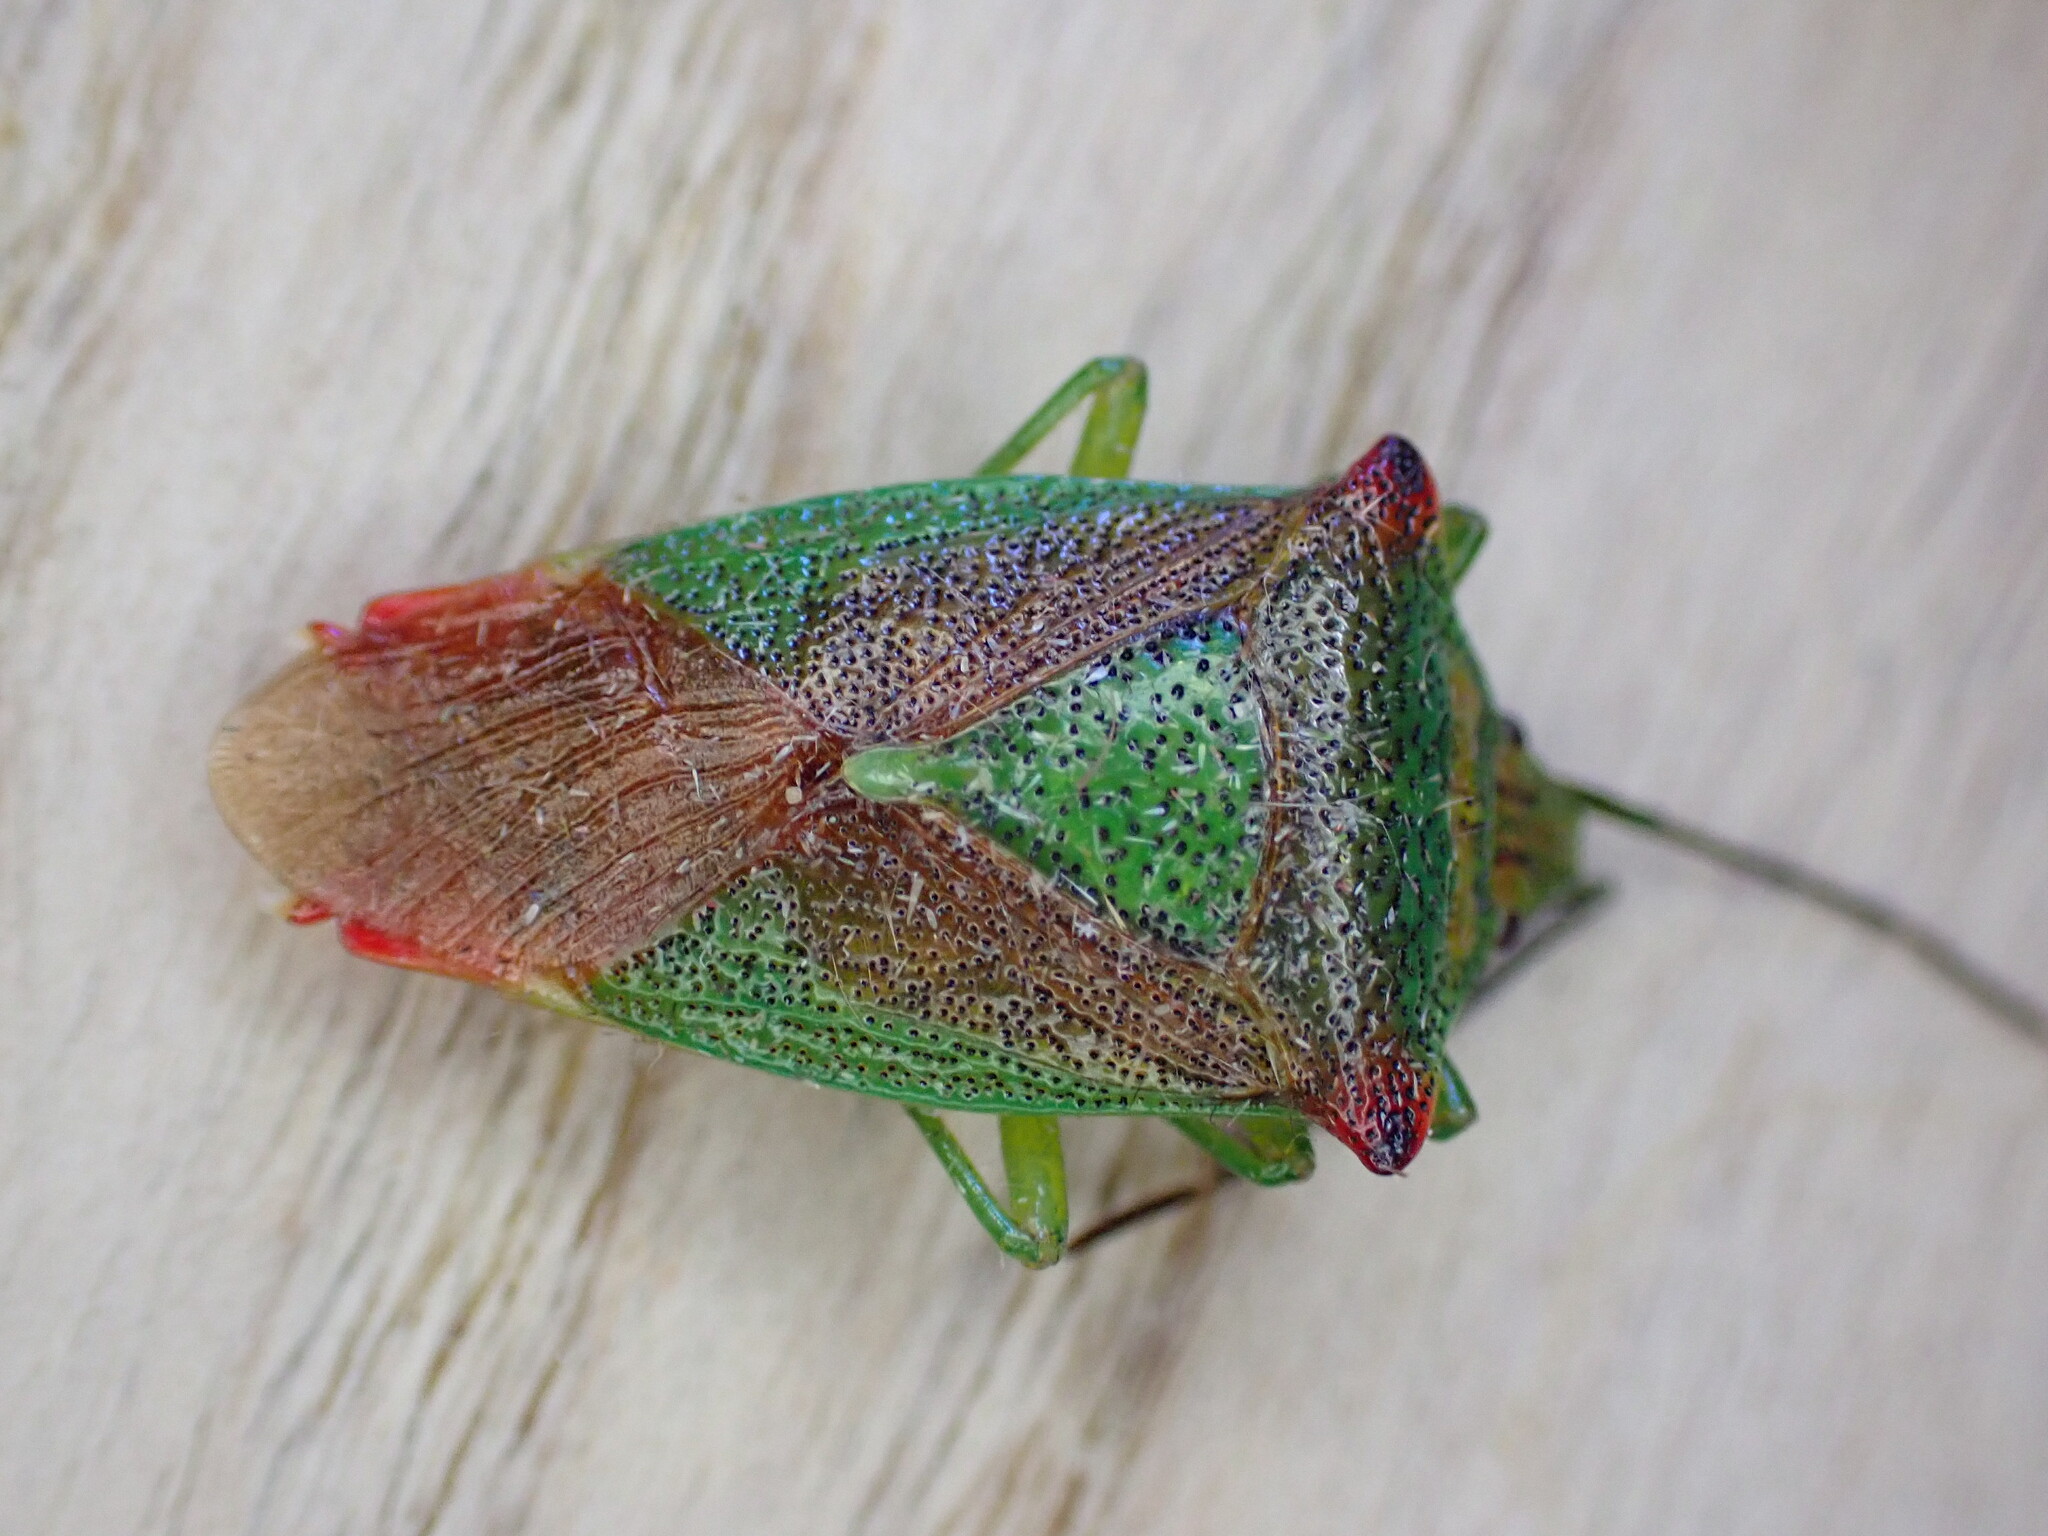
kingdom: Animalia
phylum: Arthropoda
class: Insecta
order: Hemiptera
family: Acanthosomatidae
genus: Acanthosoma
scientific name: Acanthosoma haemorrhoidale
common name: Hawthorn shieldbug
